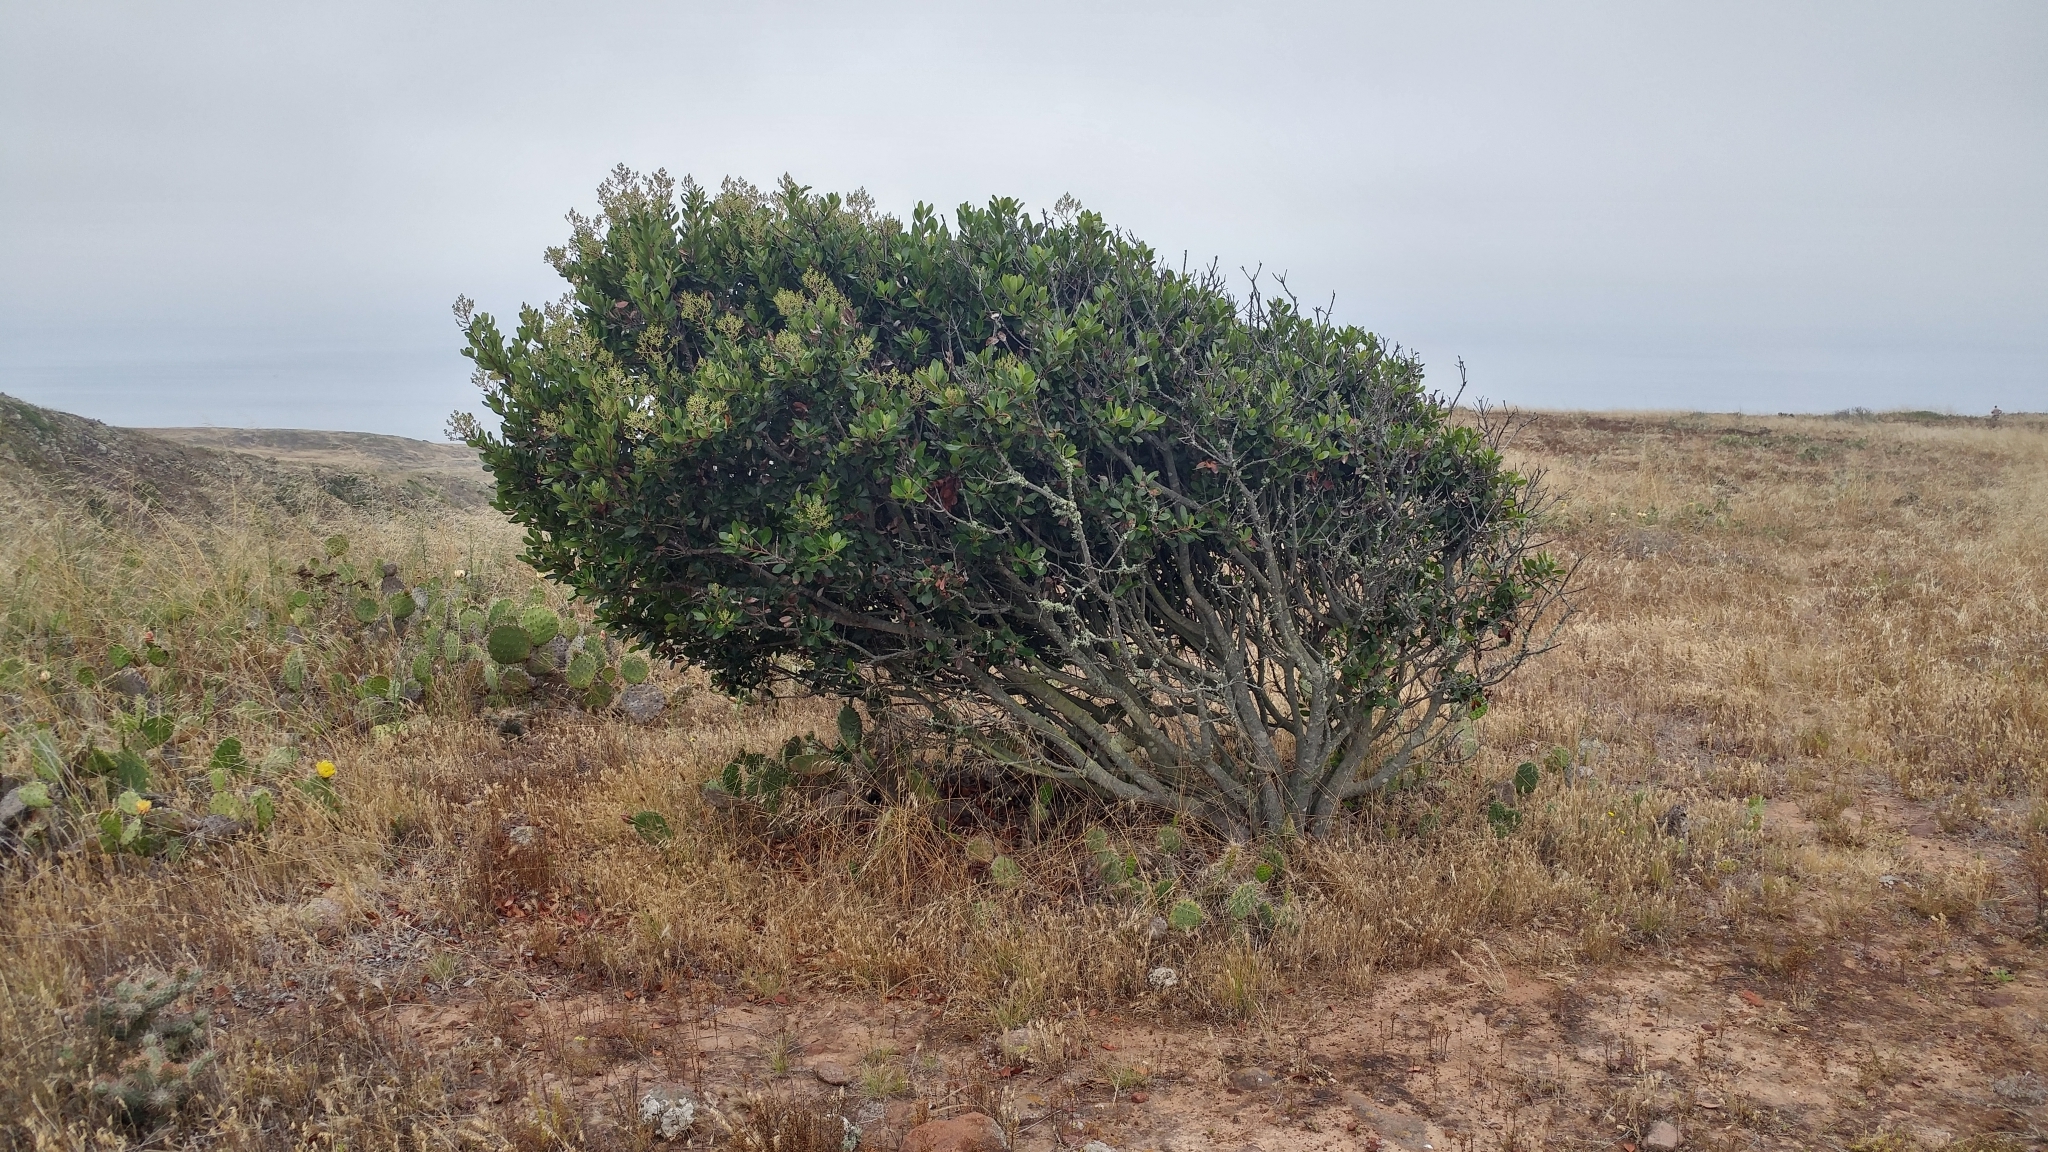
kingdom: Plantae
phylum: Tracheophyta
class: Magnoliopsida
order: Rosales
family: Rosaceae
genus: Heteromeles
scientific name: Heteromeles arbutifolia
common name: California-holly
